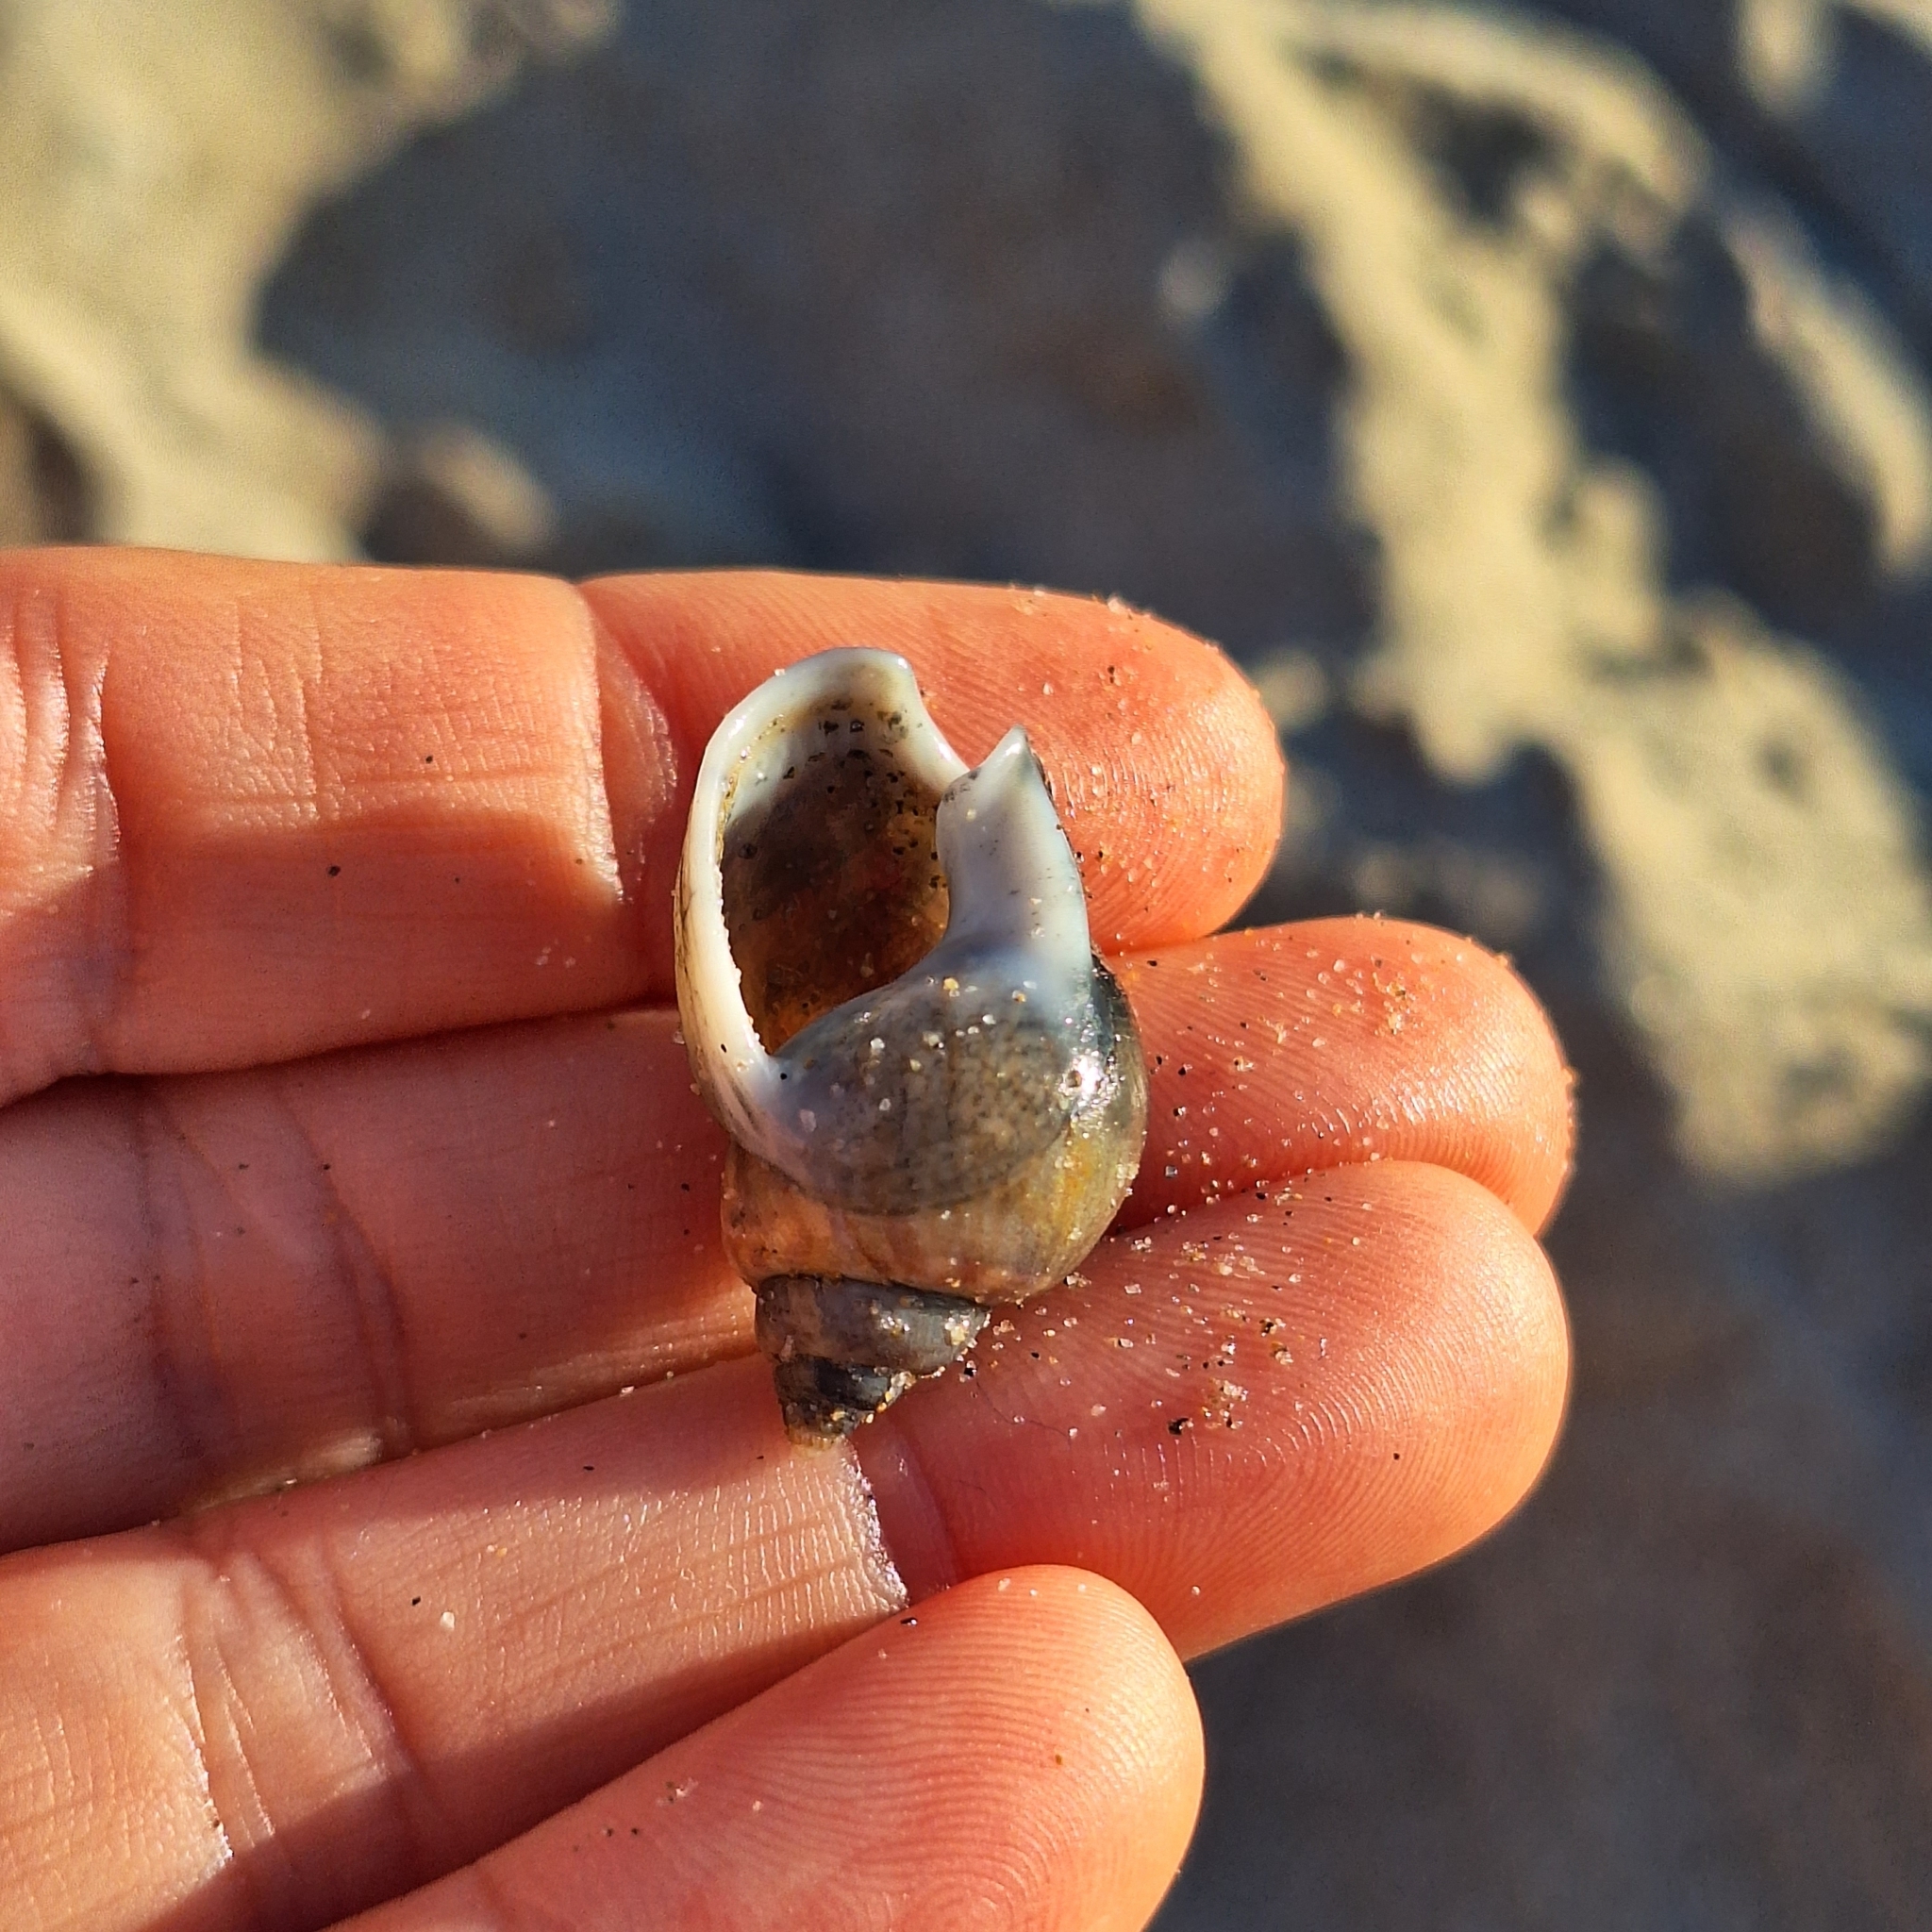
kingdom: Animalia
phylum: Mollusca
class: Gastropoda
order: Neogastropoda
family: Nassariidae
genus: Tritia
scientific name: Tritia mutabilis
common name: Mutable nassa
